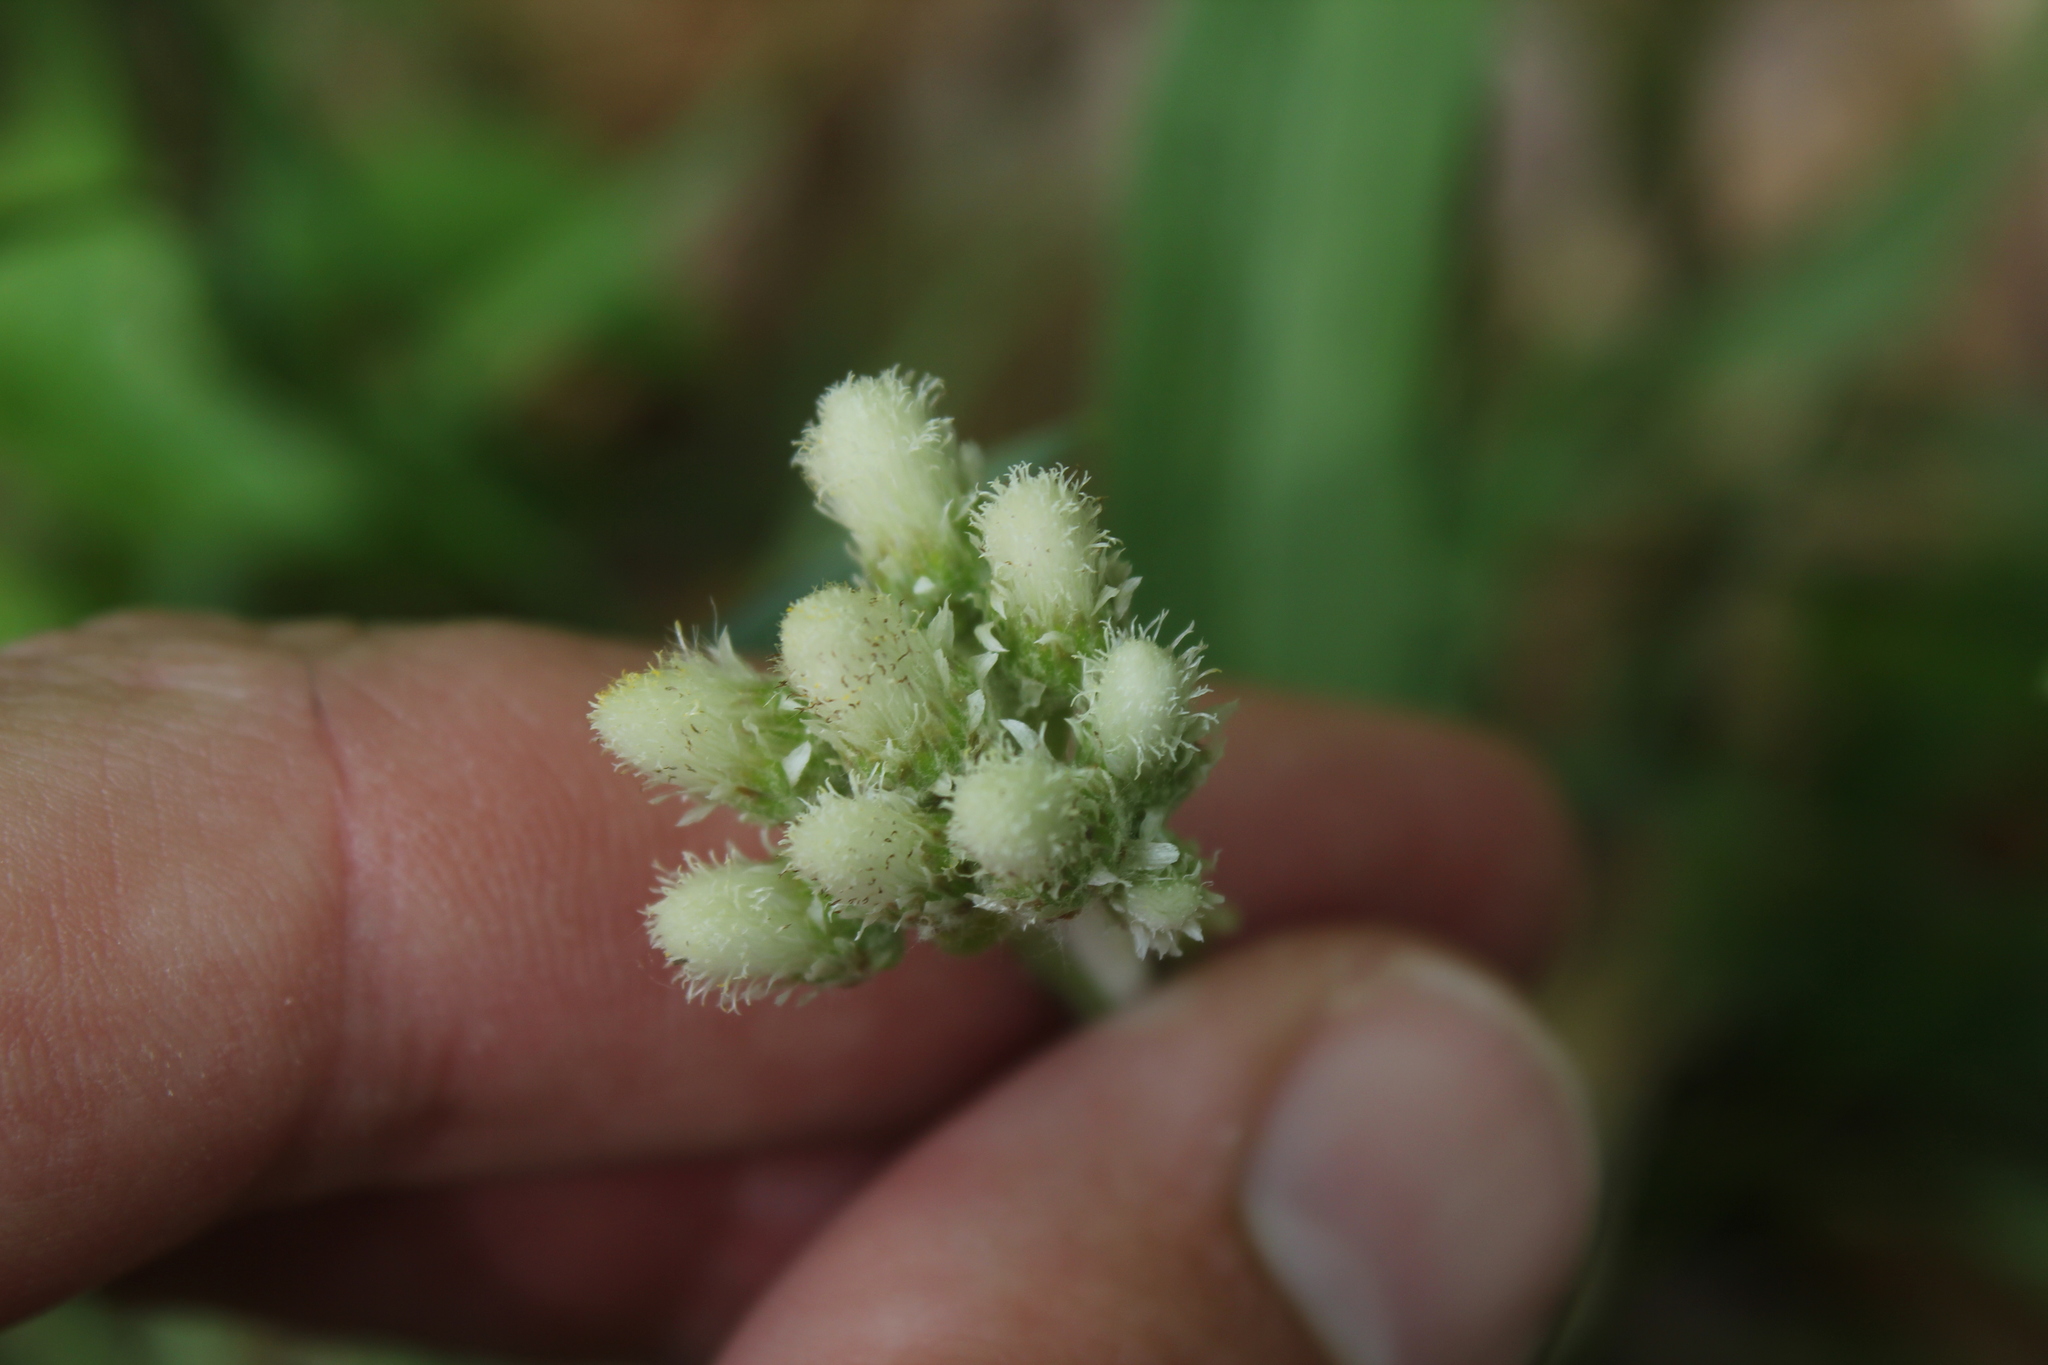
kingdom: Plantae
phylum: Tracheophyta
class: Magnoliopsida
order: Asterales
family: Asteraceae
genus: Antennaria
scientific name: Antennaria neglecta
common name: Field pussytoes
